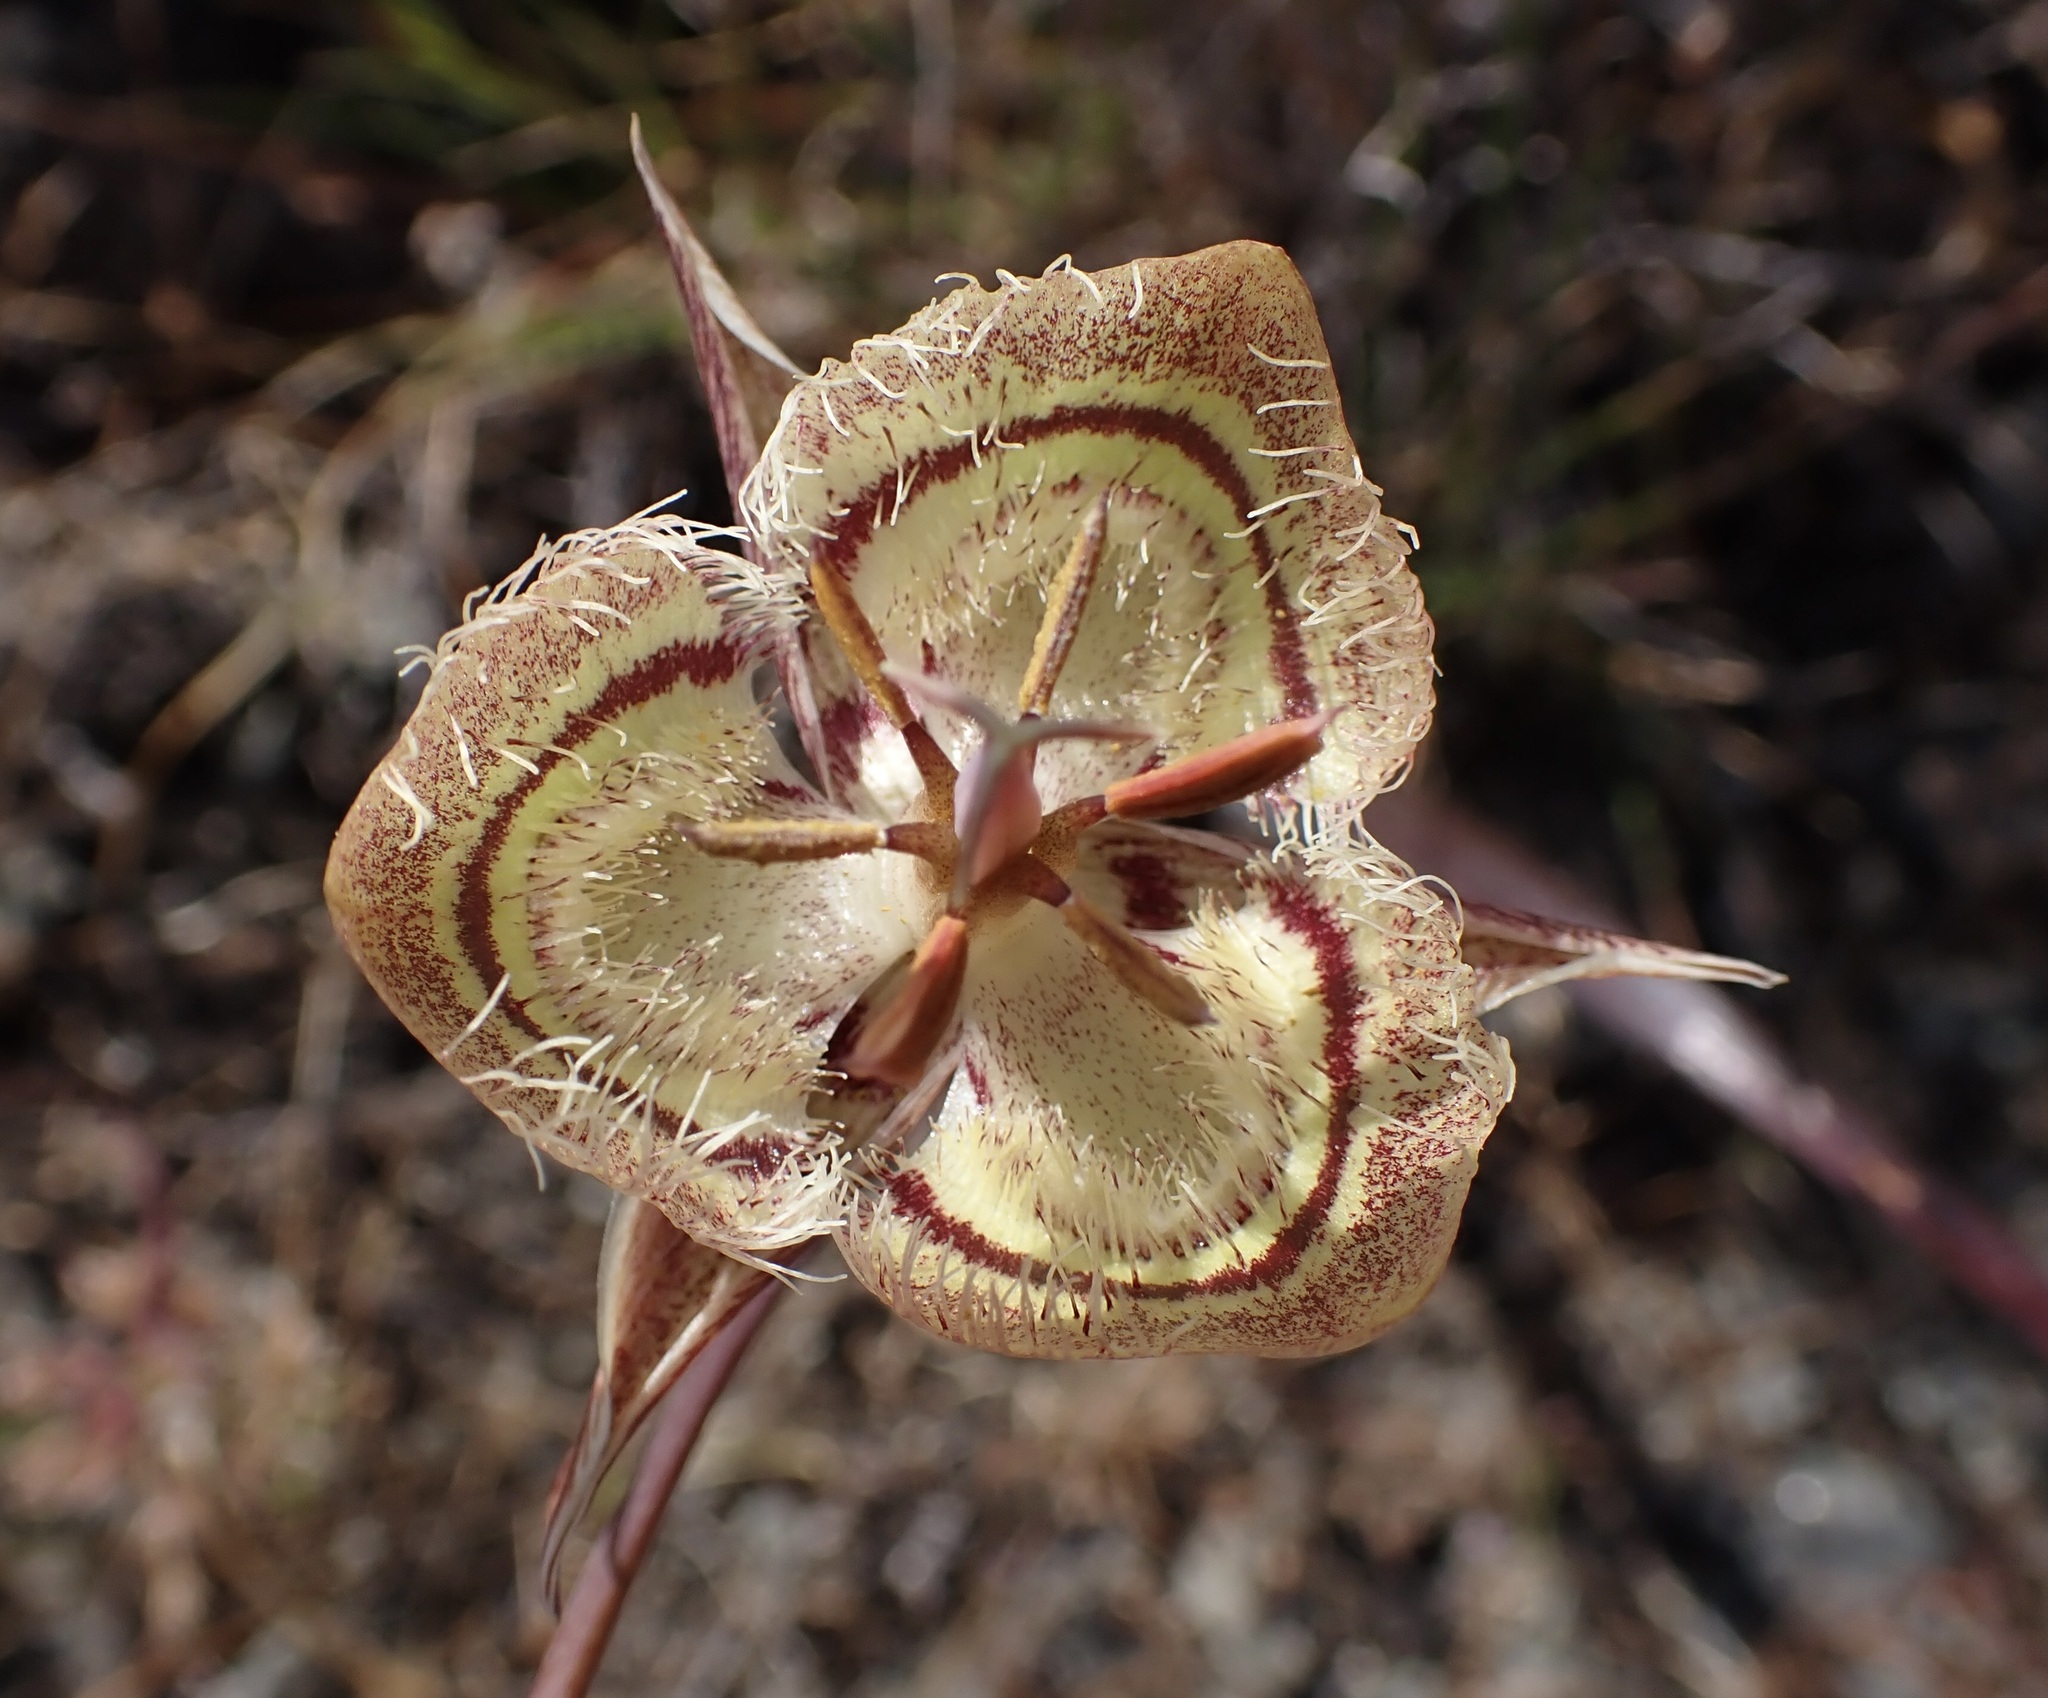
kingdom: Plantae
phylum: Tracheophyta
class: Liliopsida
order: Liliales
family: Liliaceae
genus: Calochortus
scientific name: Calochortus tiburonensis
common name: Tiburon mariposa-lily
